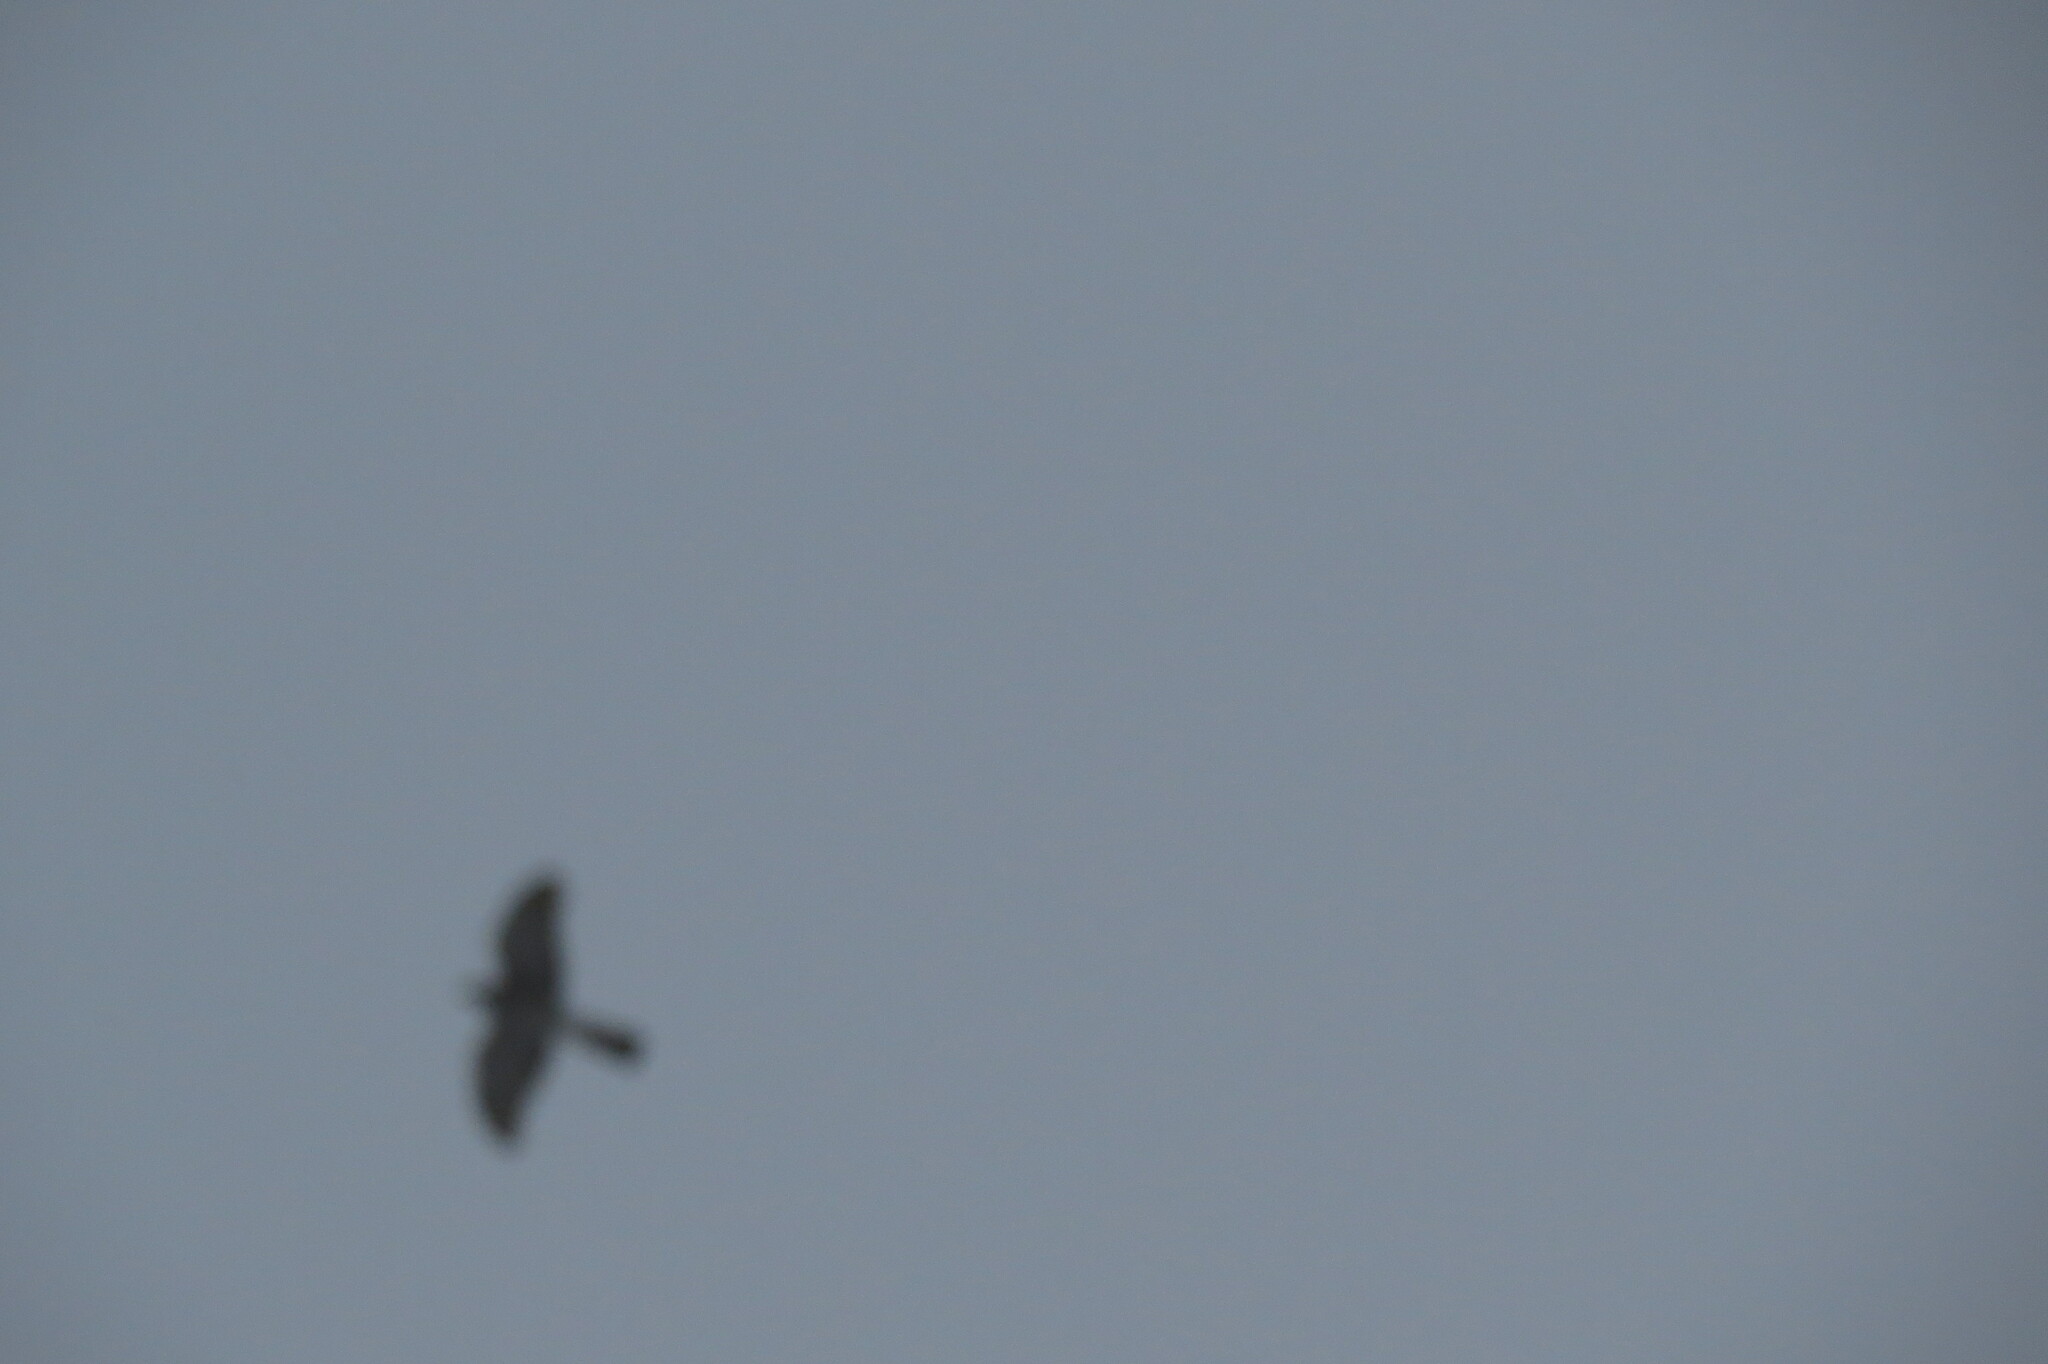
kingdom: Animalia
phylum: Chordata
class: Aves
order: Accipitriformes
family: Accipitridae
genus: Accipiter
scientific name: Accipiter nisus
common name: Eurasian sparrowhawk
